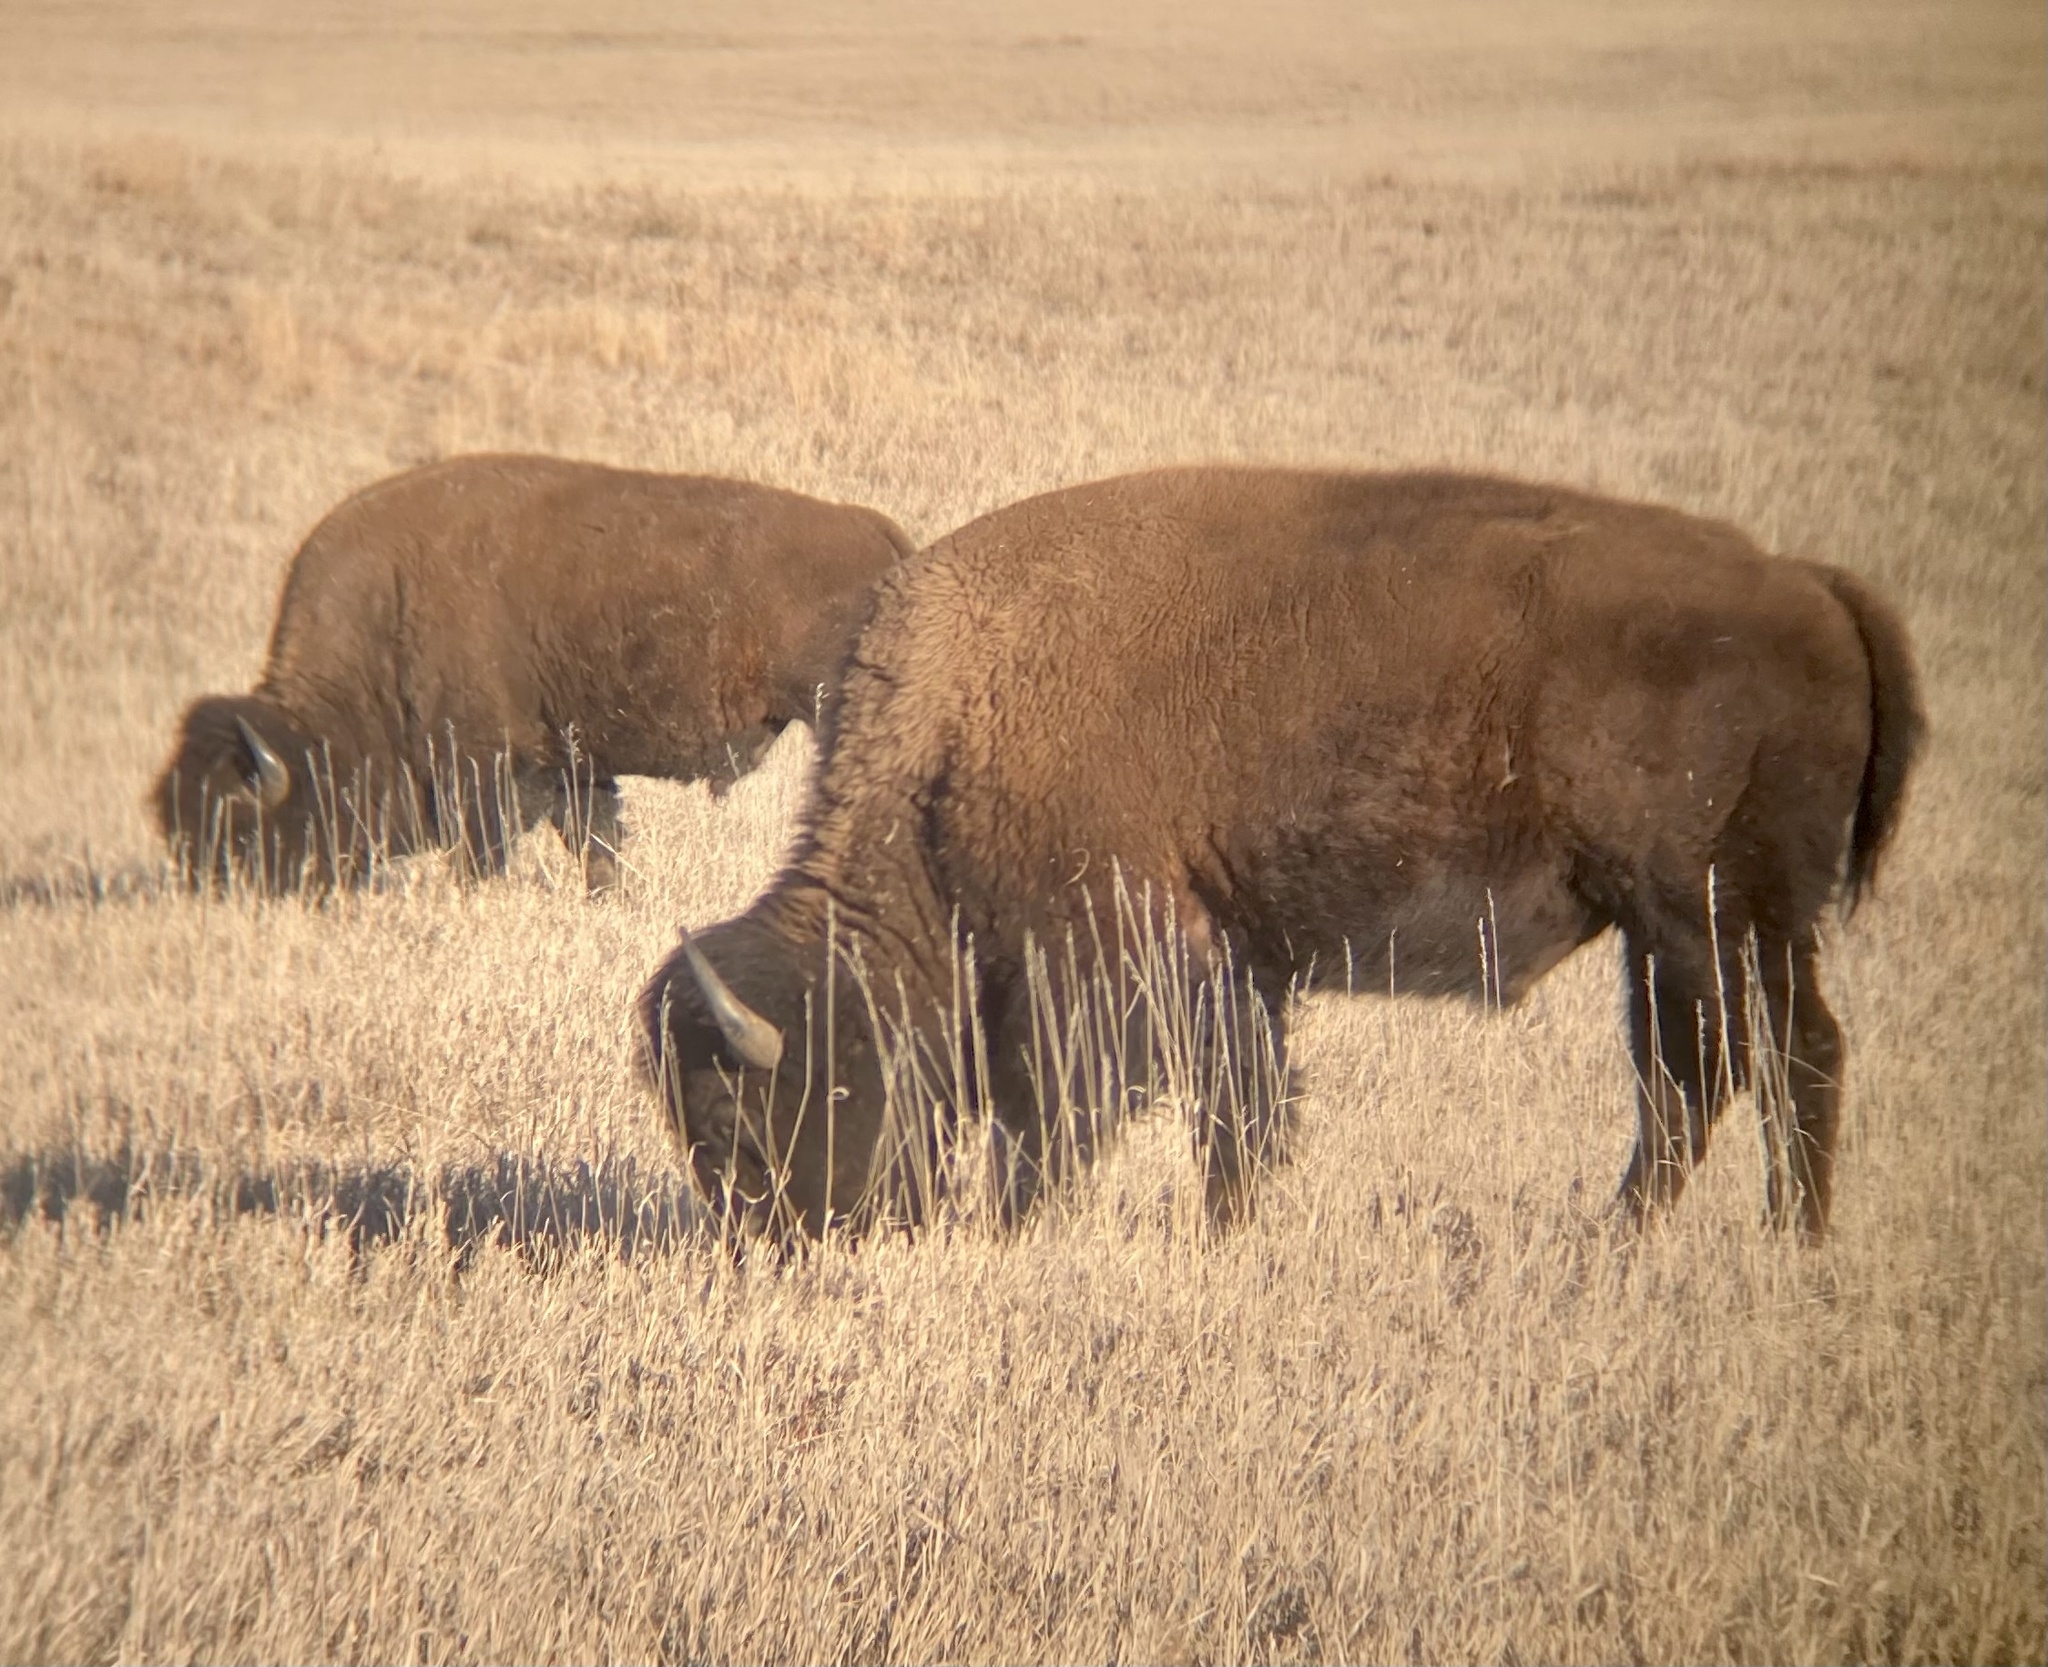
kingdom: Animalia
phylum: Chordata
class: Mammalia
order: Artiodactyla
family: Bovidae
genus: Bison
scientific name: Bison bison
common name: American bison
